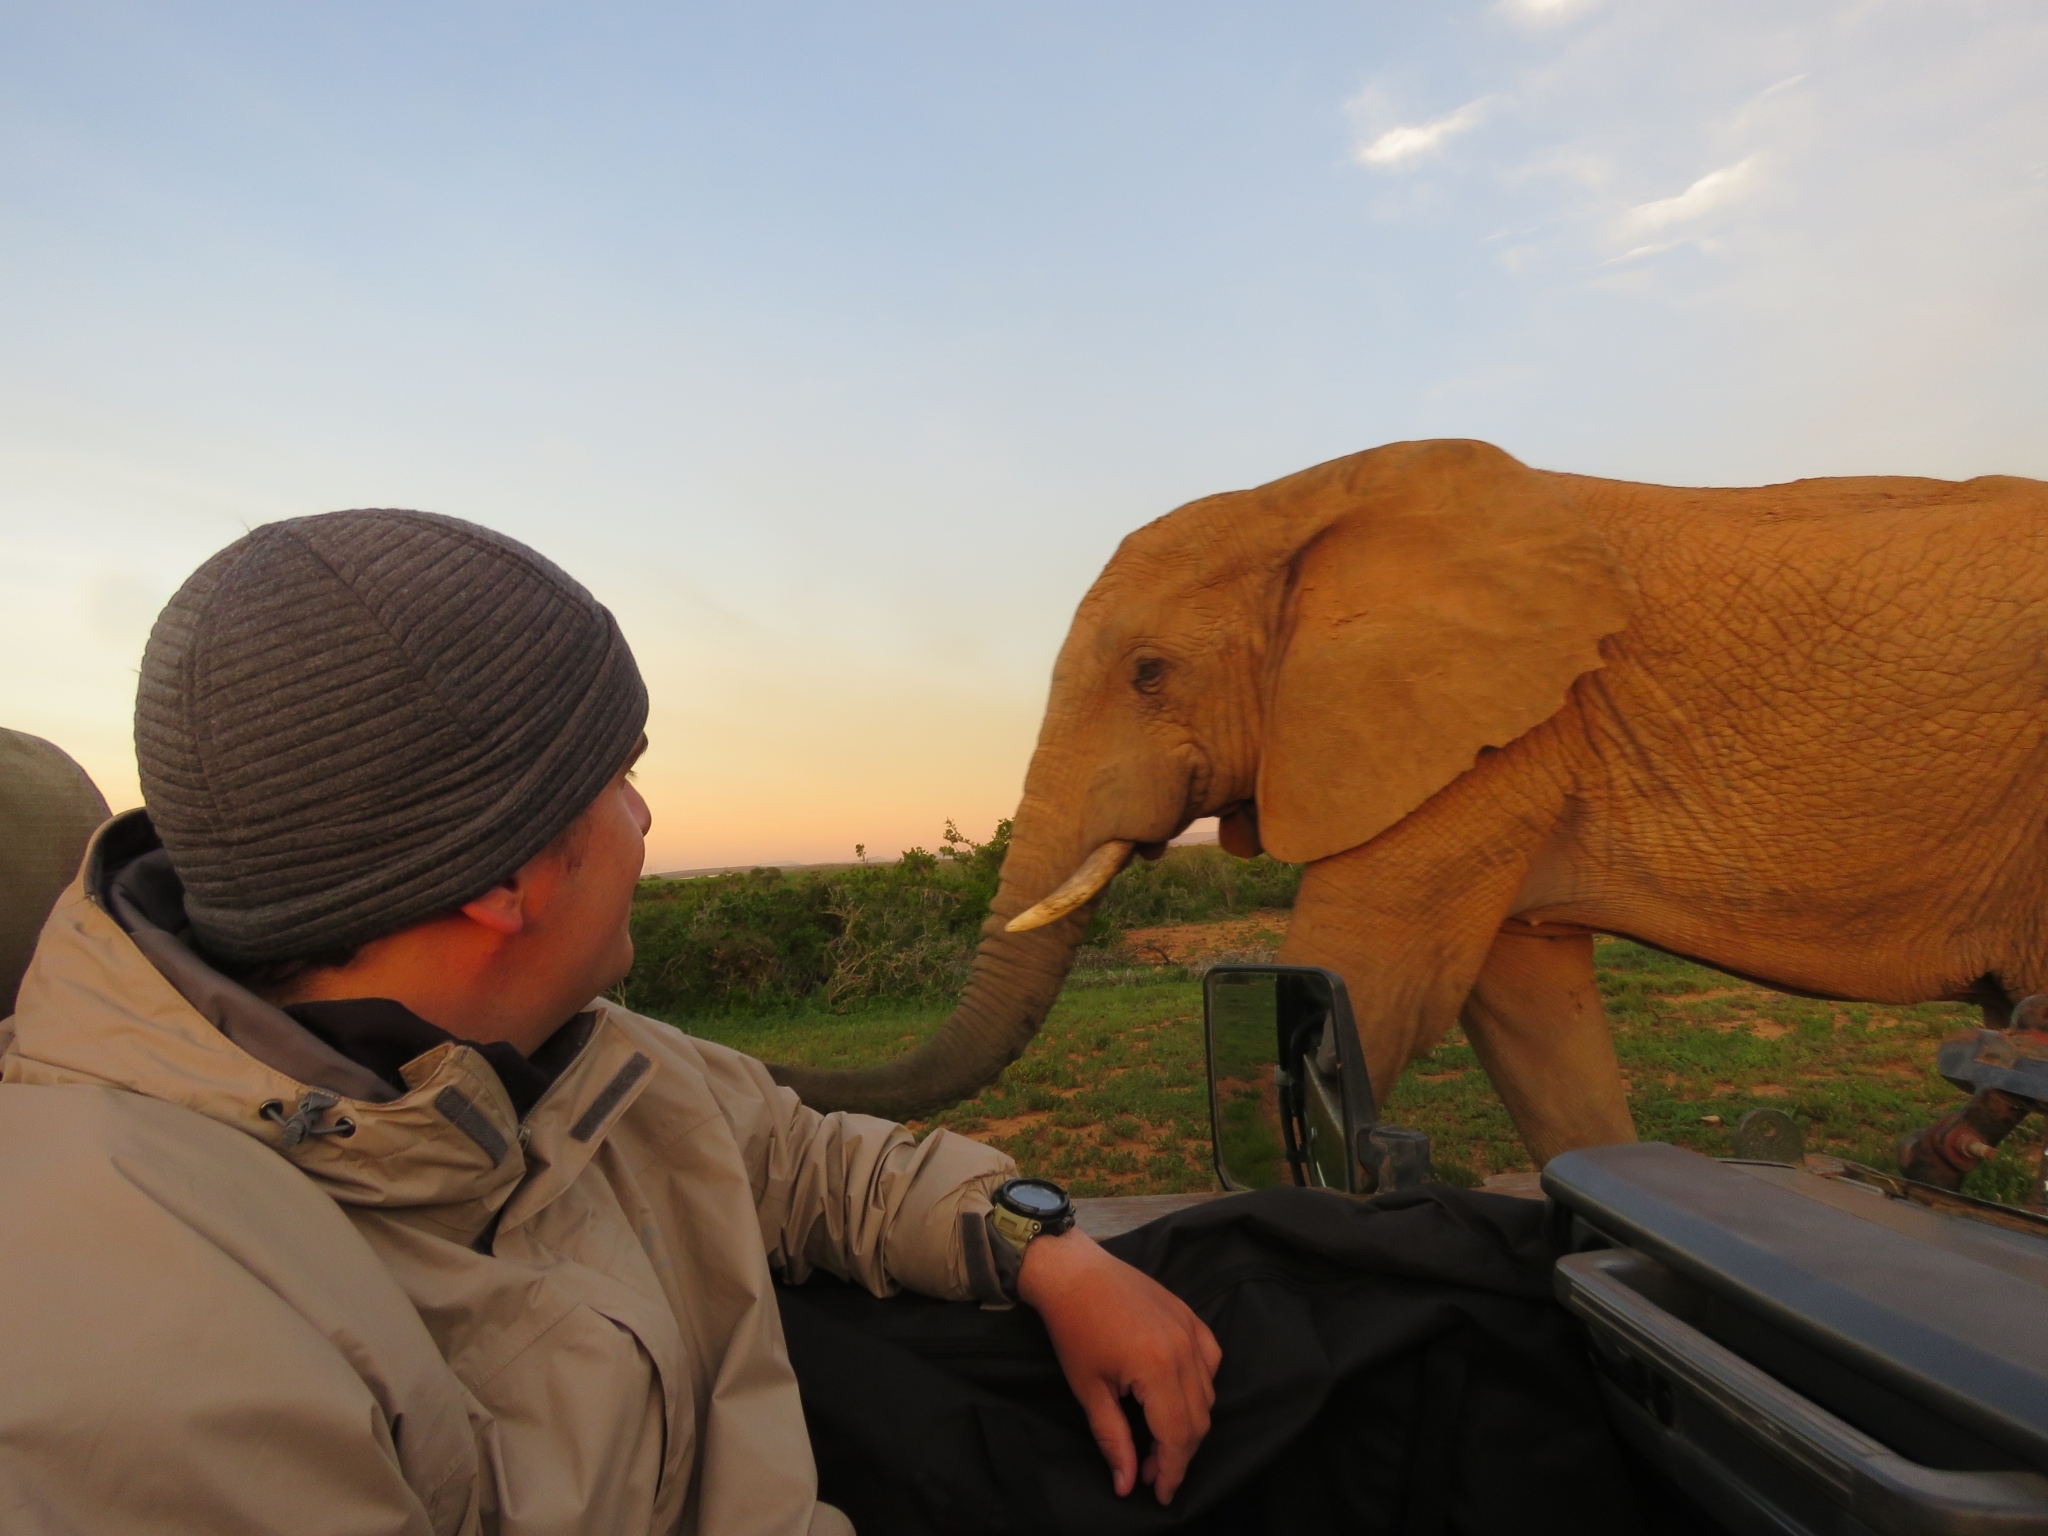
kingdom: Animalia
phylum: Chordata
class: Mammalia
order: Proboscidea
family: Elephantidae
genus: Loxodonta
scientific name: Loxodonta africana
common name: African elephant
